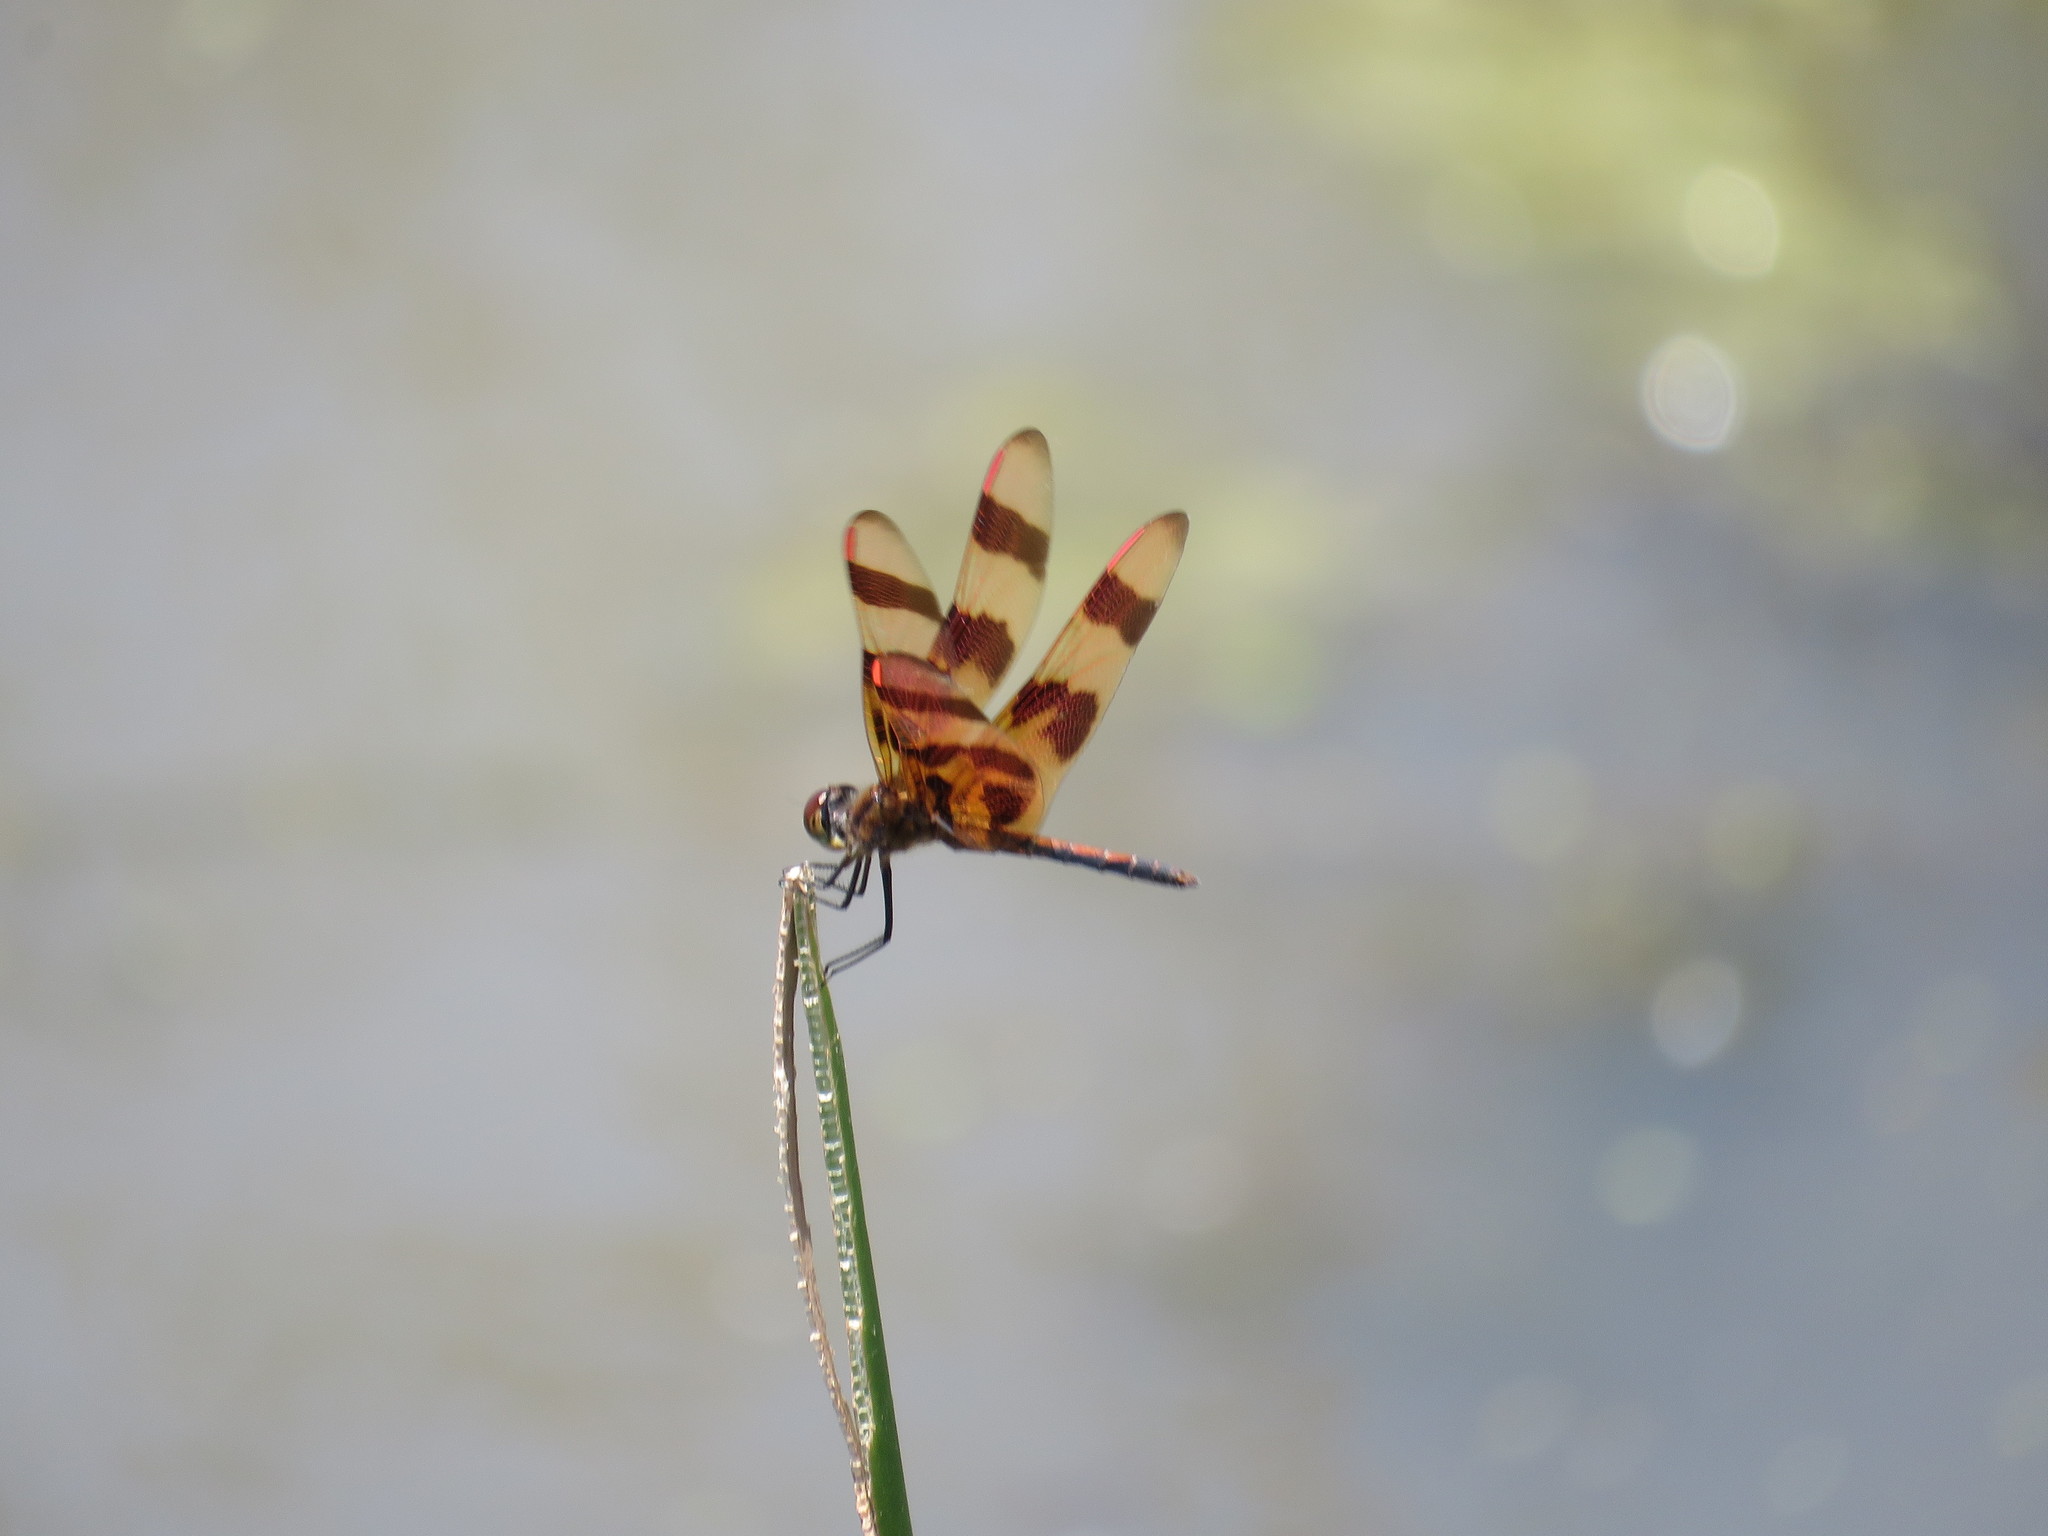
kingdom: Animalia
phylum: Arthropoda
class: Insecta
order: Odonata
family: Libellulidae
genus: Celithemis
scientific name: Celithemis eponina
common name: Halloween pennant
